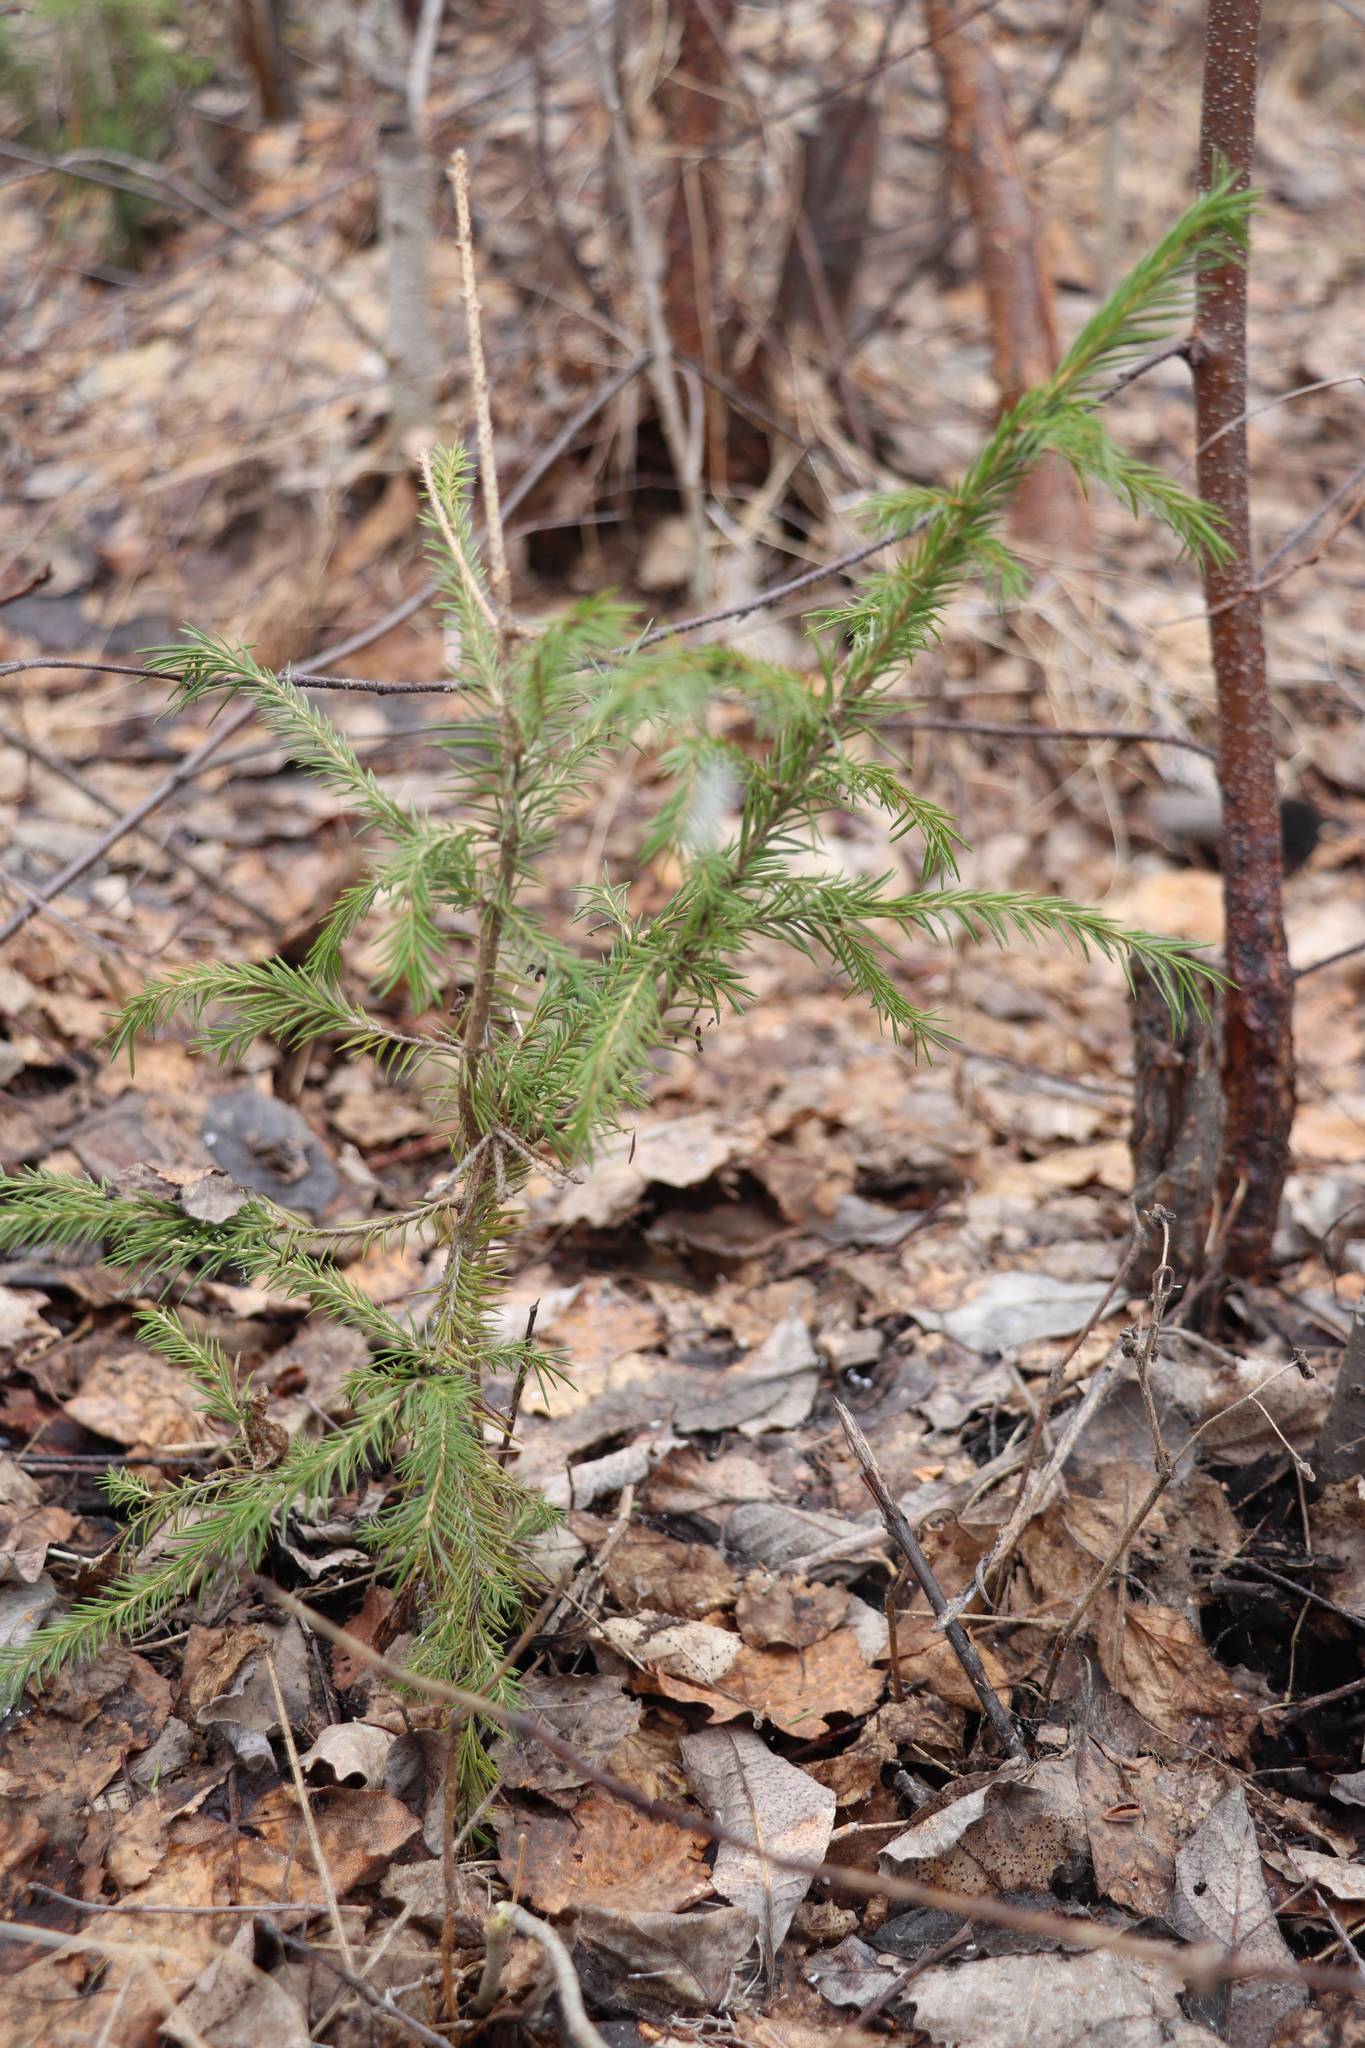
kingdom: Plantae
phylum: Tracheophyta
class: Pinopsida
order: Pinales
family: Pinaceae
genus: Picea
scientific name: Picea obovata
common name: Siberian spruce
